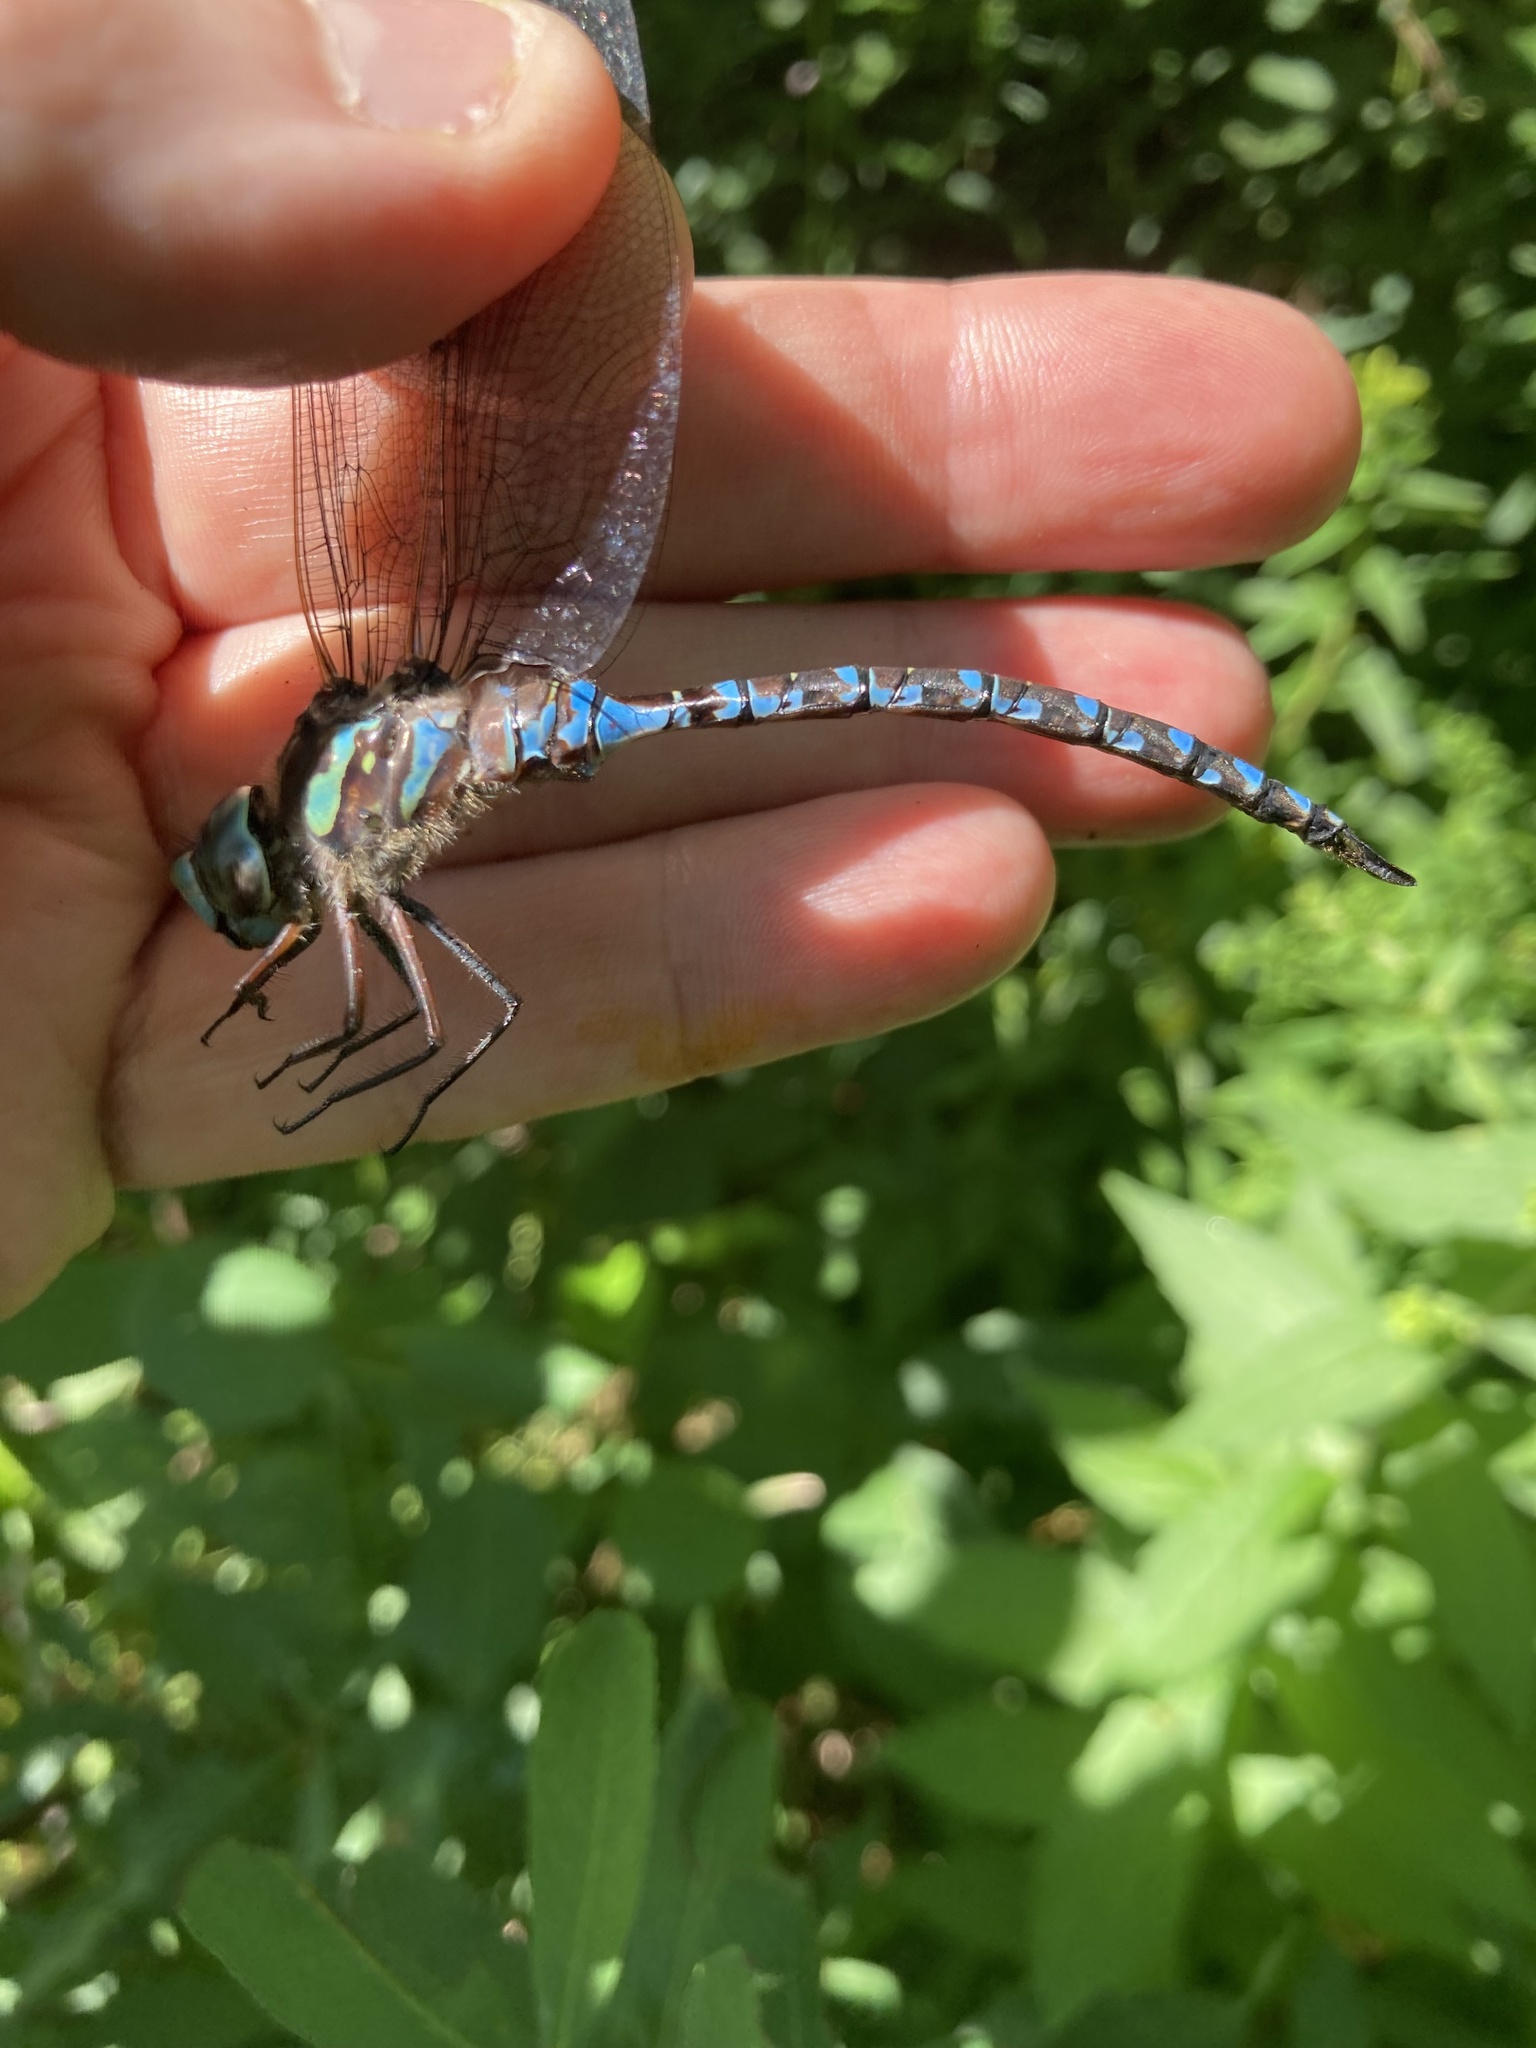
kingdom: Animalia
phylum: Arthropoda
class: Insecta
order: Odonata
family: Aeshnidae
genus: Aeshna
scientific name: Aeshna canadensis
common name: Canada darner
